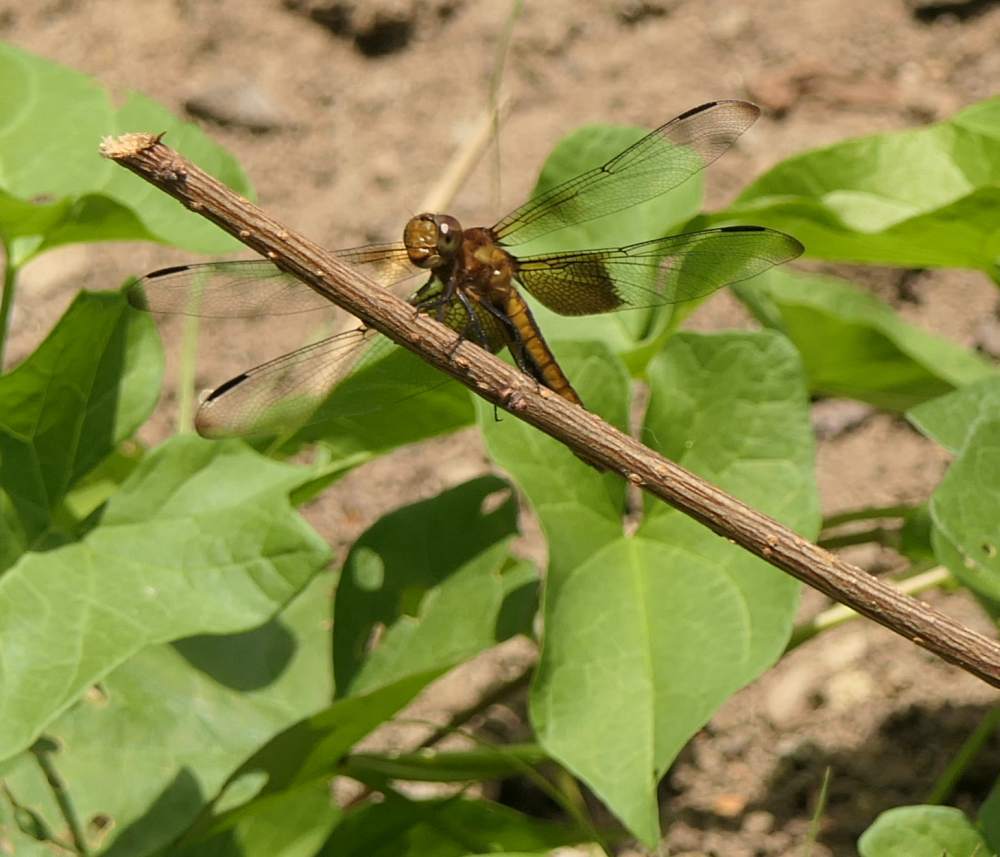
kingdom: Animalia
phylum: Arthropoda
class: Insecta
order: Odonata
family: Libellulidae
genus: Libellula
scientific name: Libellula luctuosa
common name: Widow skimmer
